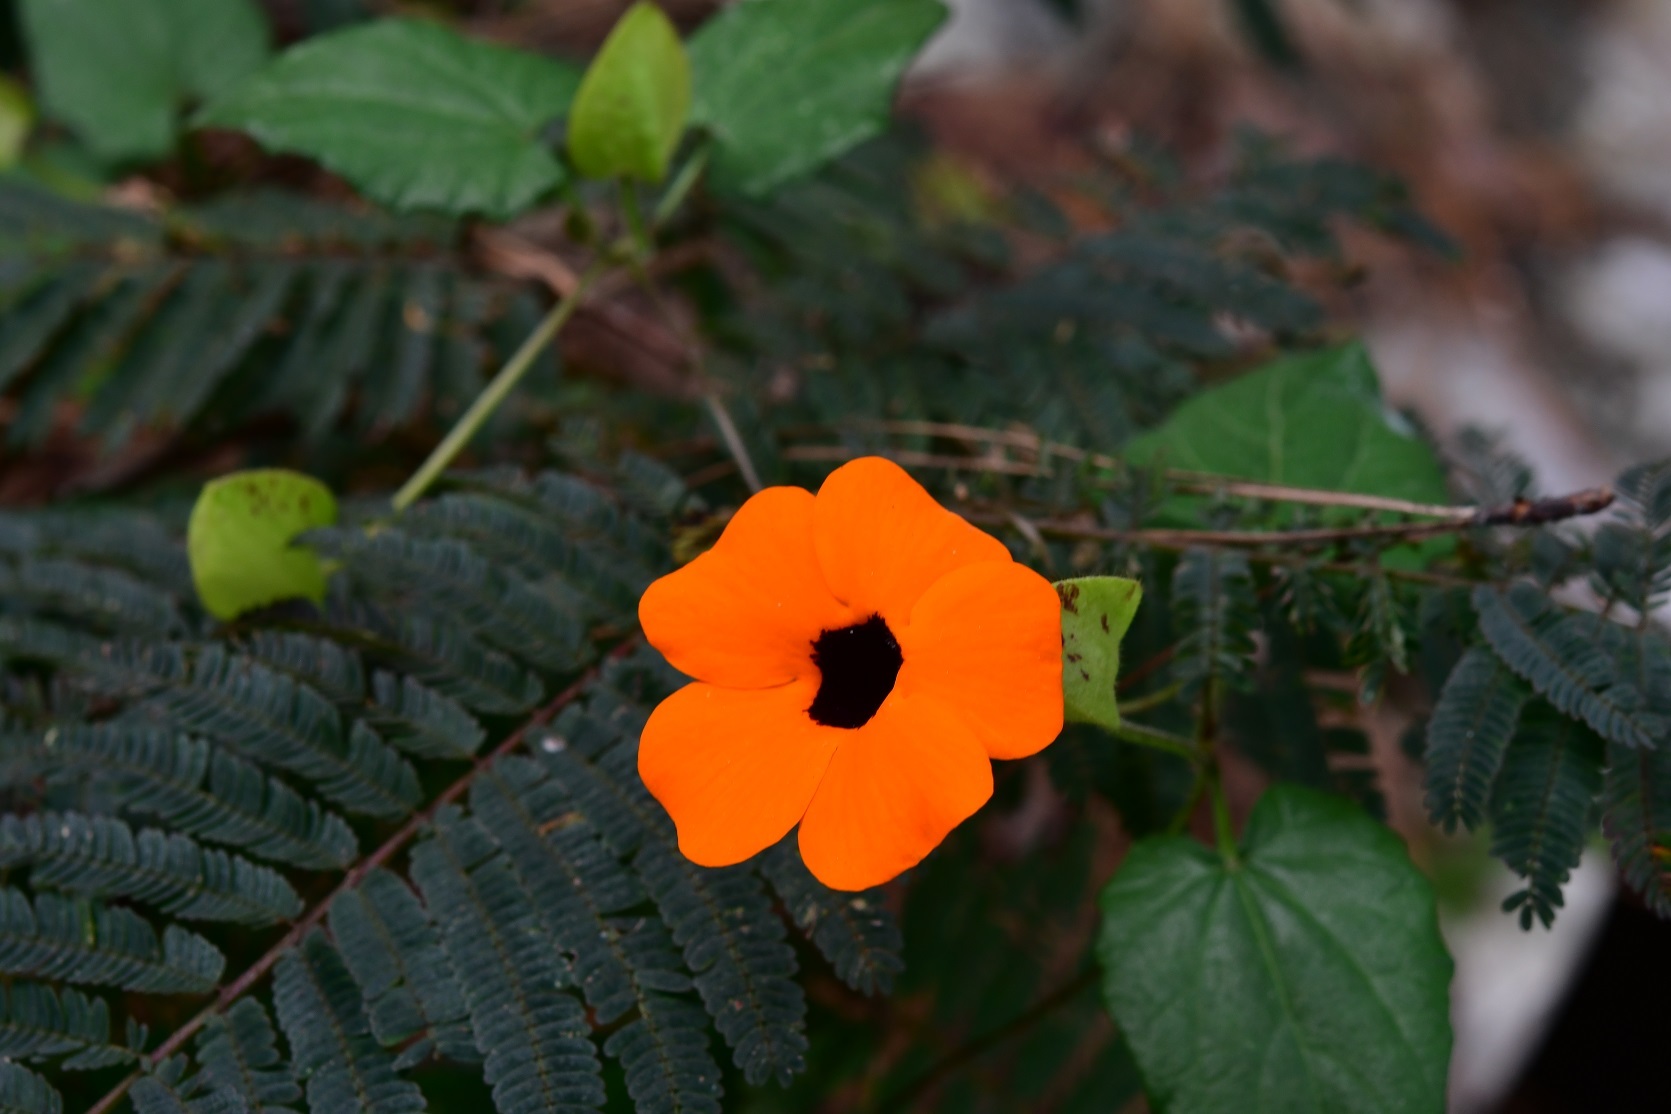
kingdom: Plantae
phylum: Tracheophyta
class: Magnoliopsida
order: Lamiales
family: Acanthaceae
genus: Thunbergia
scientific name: Thunbergia alata
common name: Blackeyed susan vine
